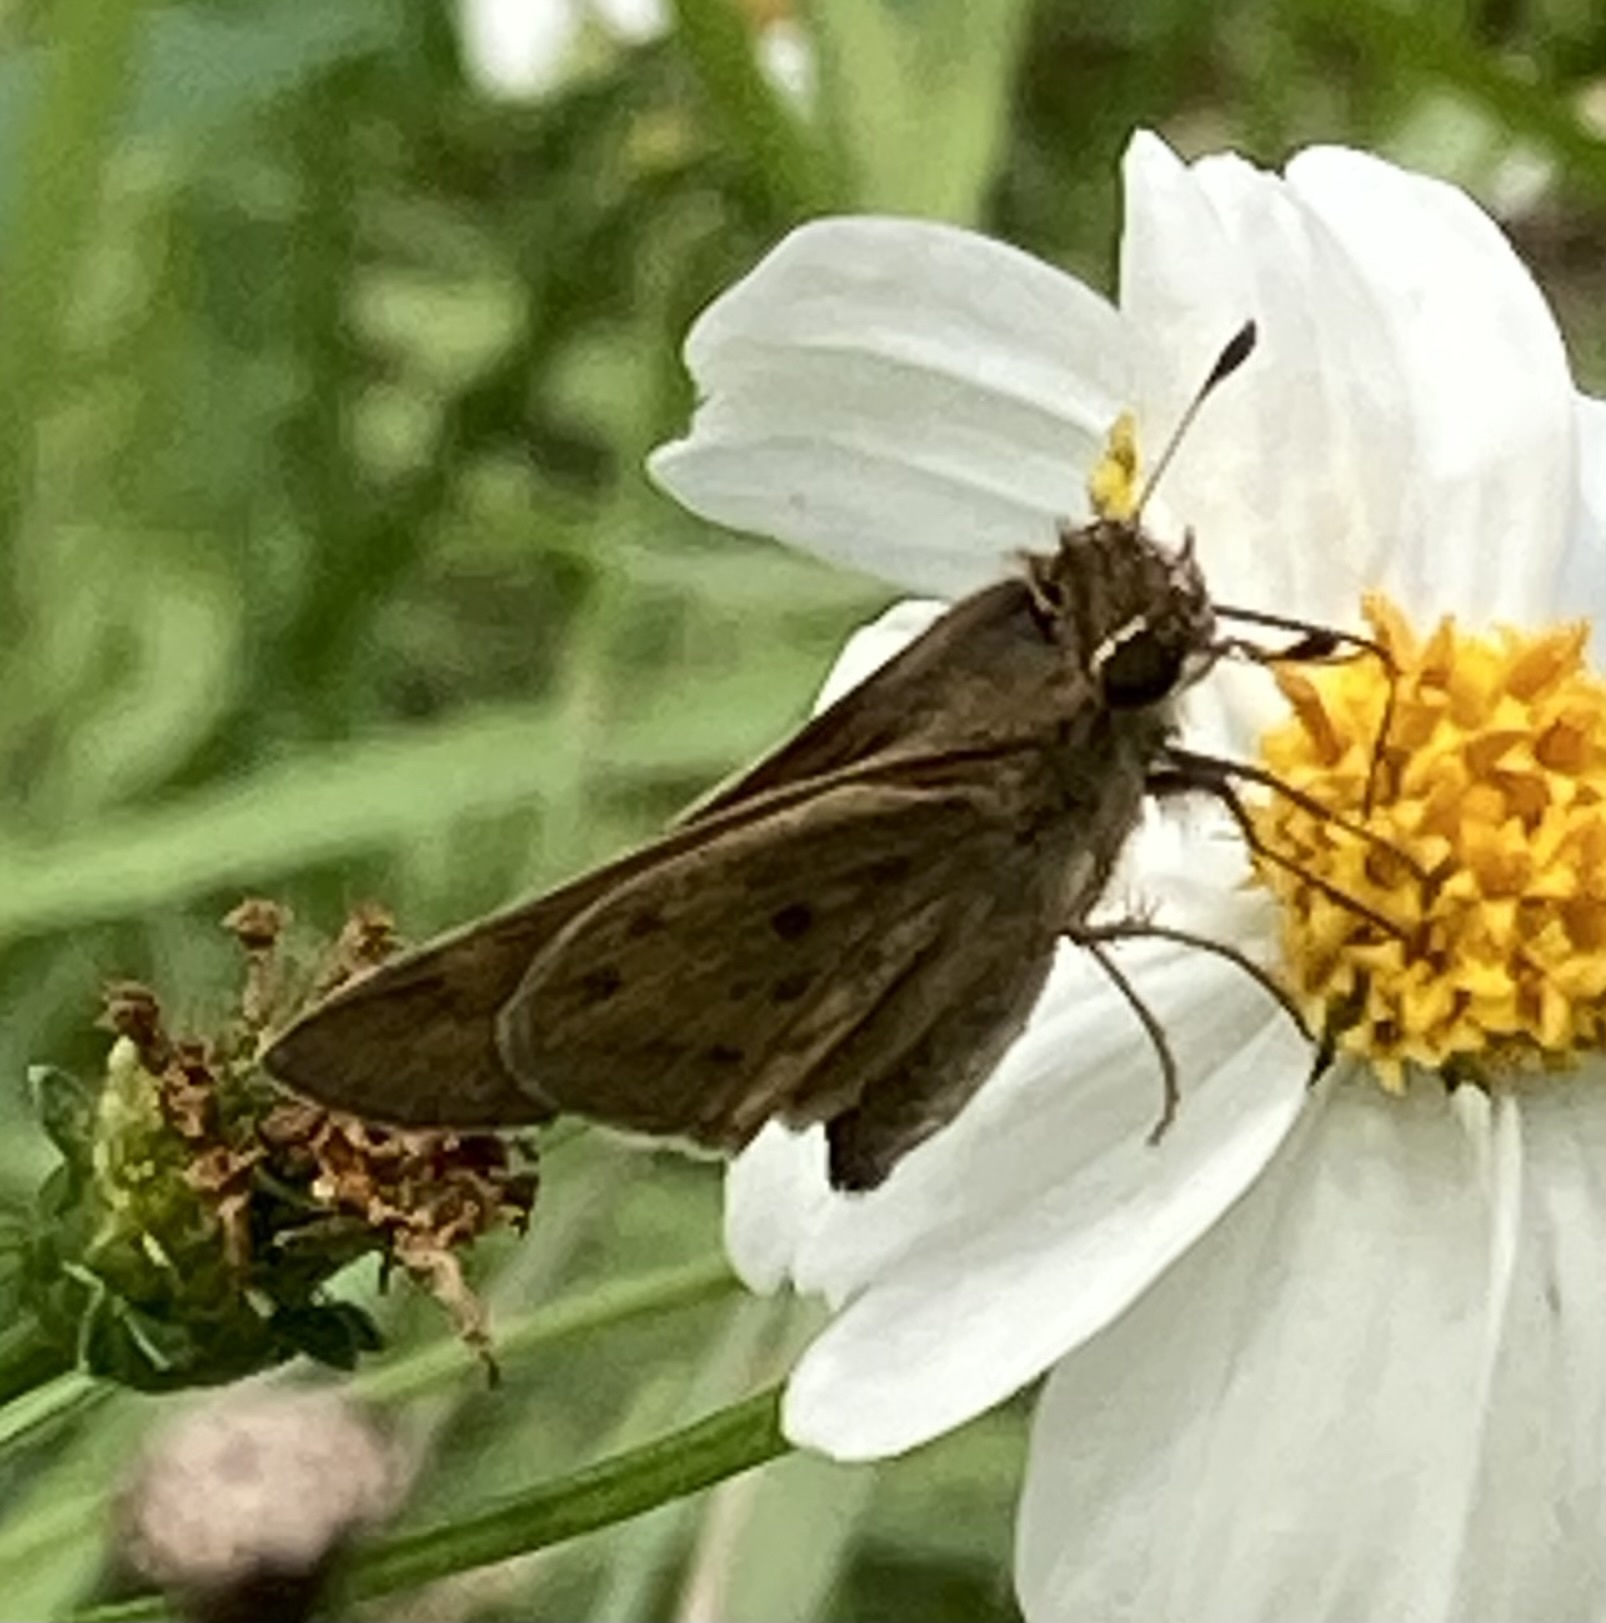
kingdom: Animalia
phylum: Arthropoda
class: Insecta
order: Lepidoptera
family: Hesperiidae
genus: Hylephila
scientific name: Hylephila phyleus
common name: Fiery skipper
